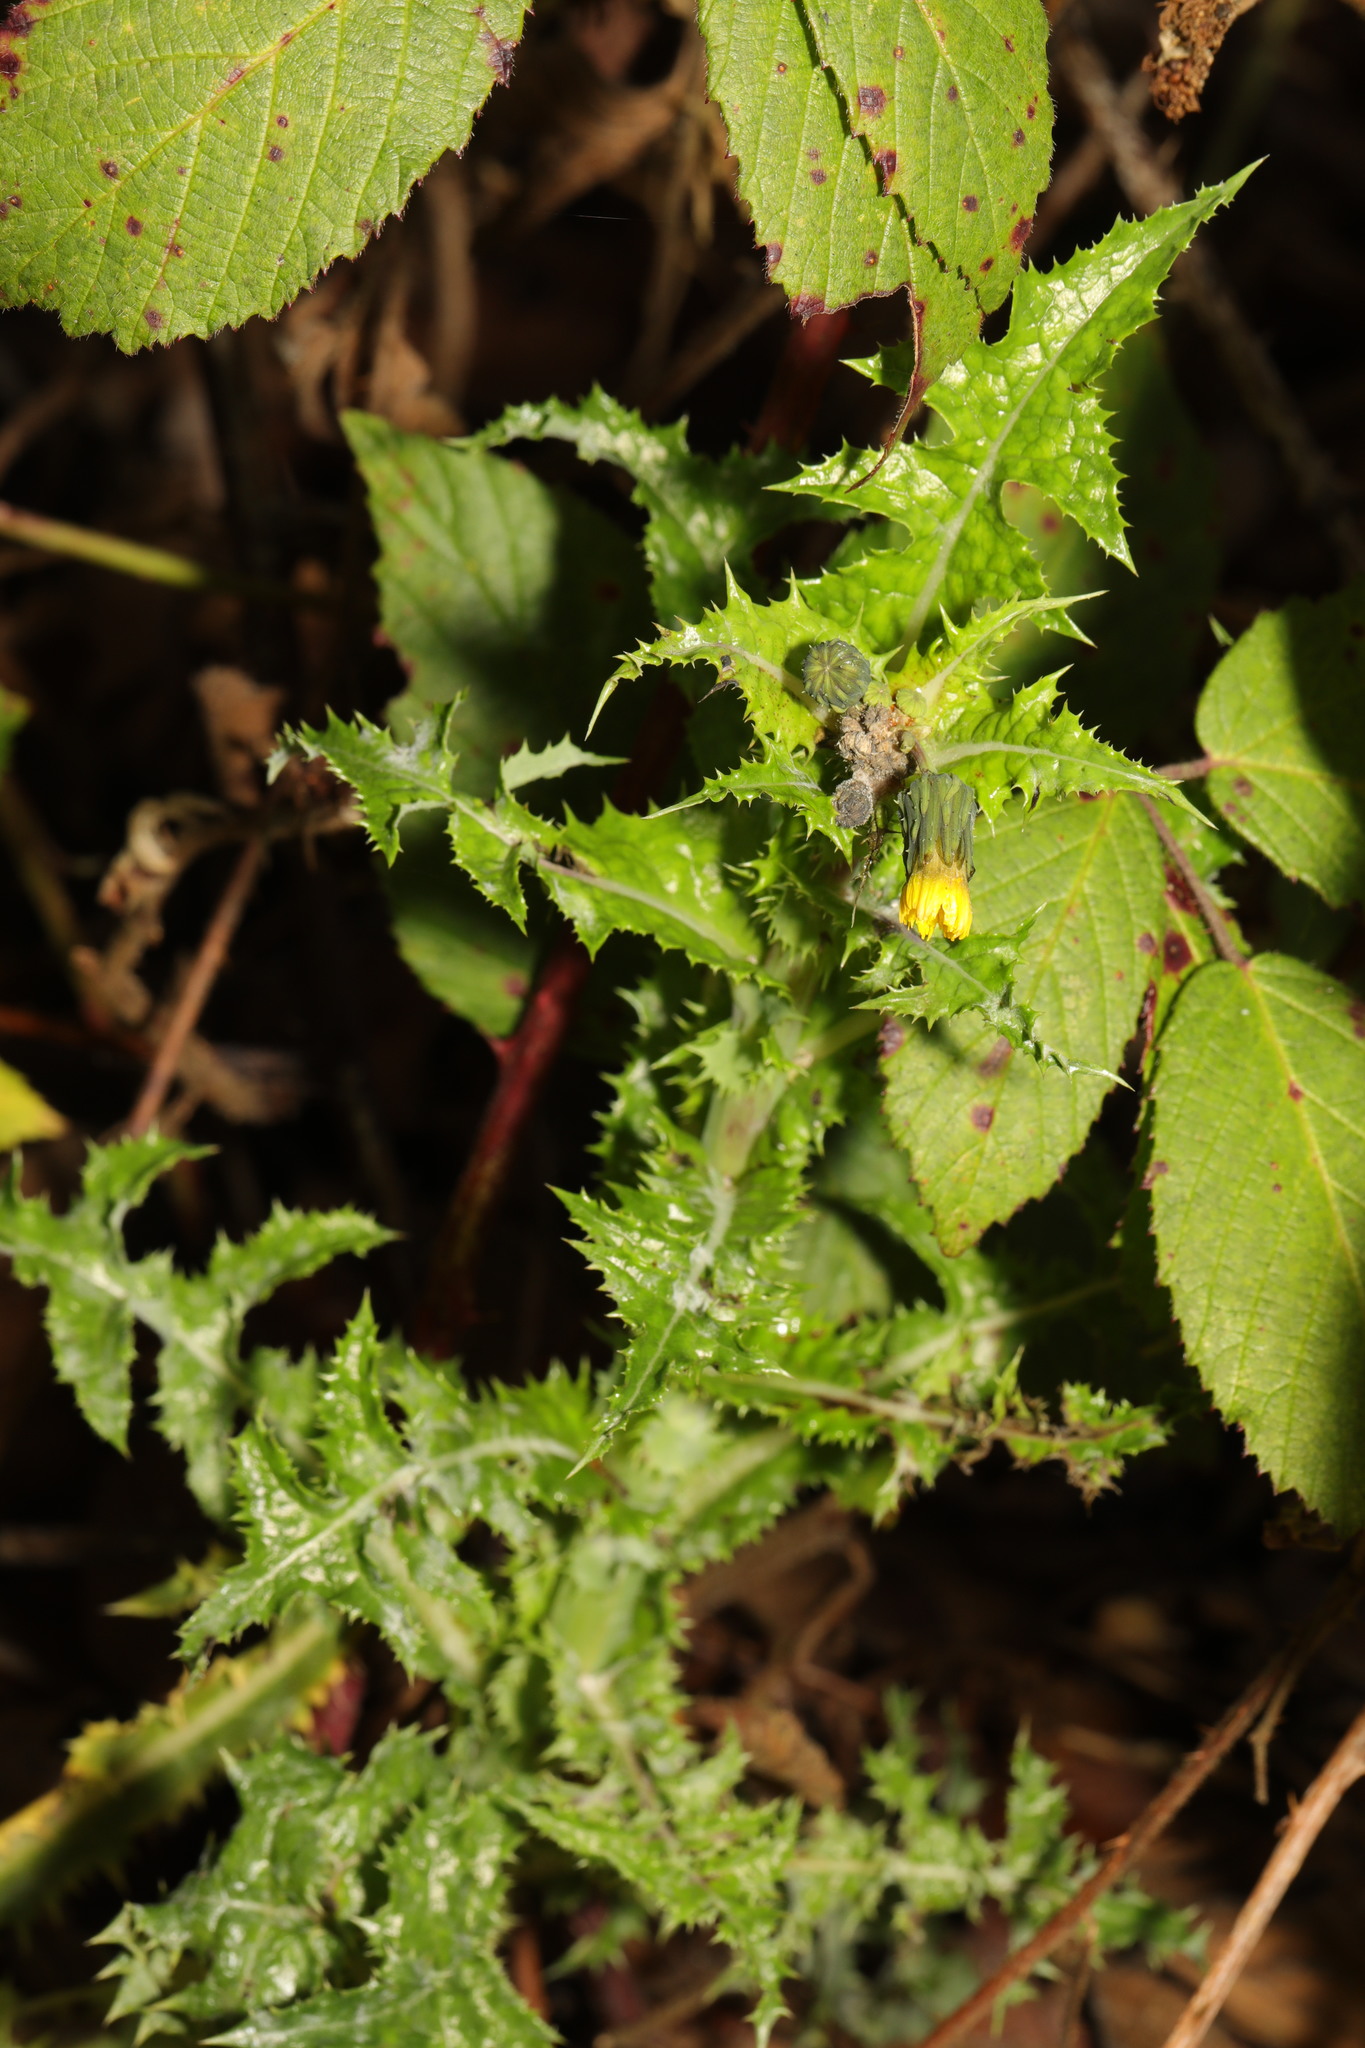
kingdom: Plantae
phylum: Tracheophyta
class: Magnoliopsida
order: Asterales
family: Asteraceae
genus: Sonchus
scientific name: Sonchus asper
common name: Prickly sow-thistle
